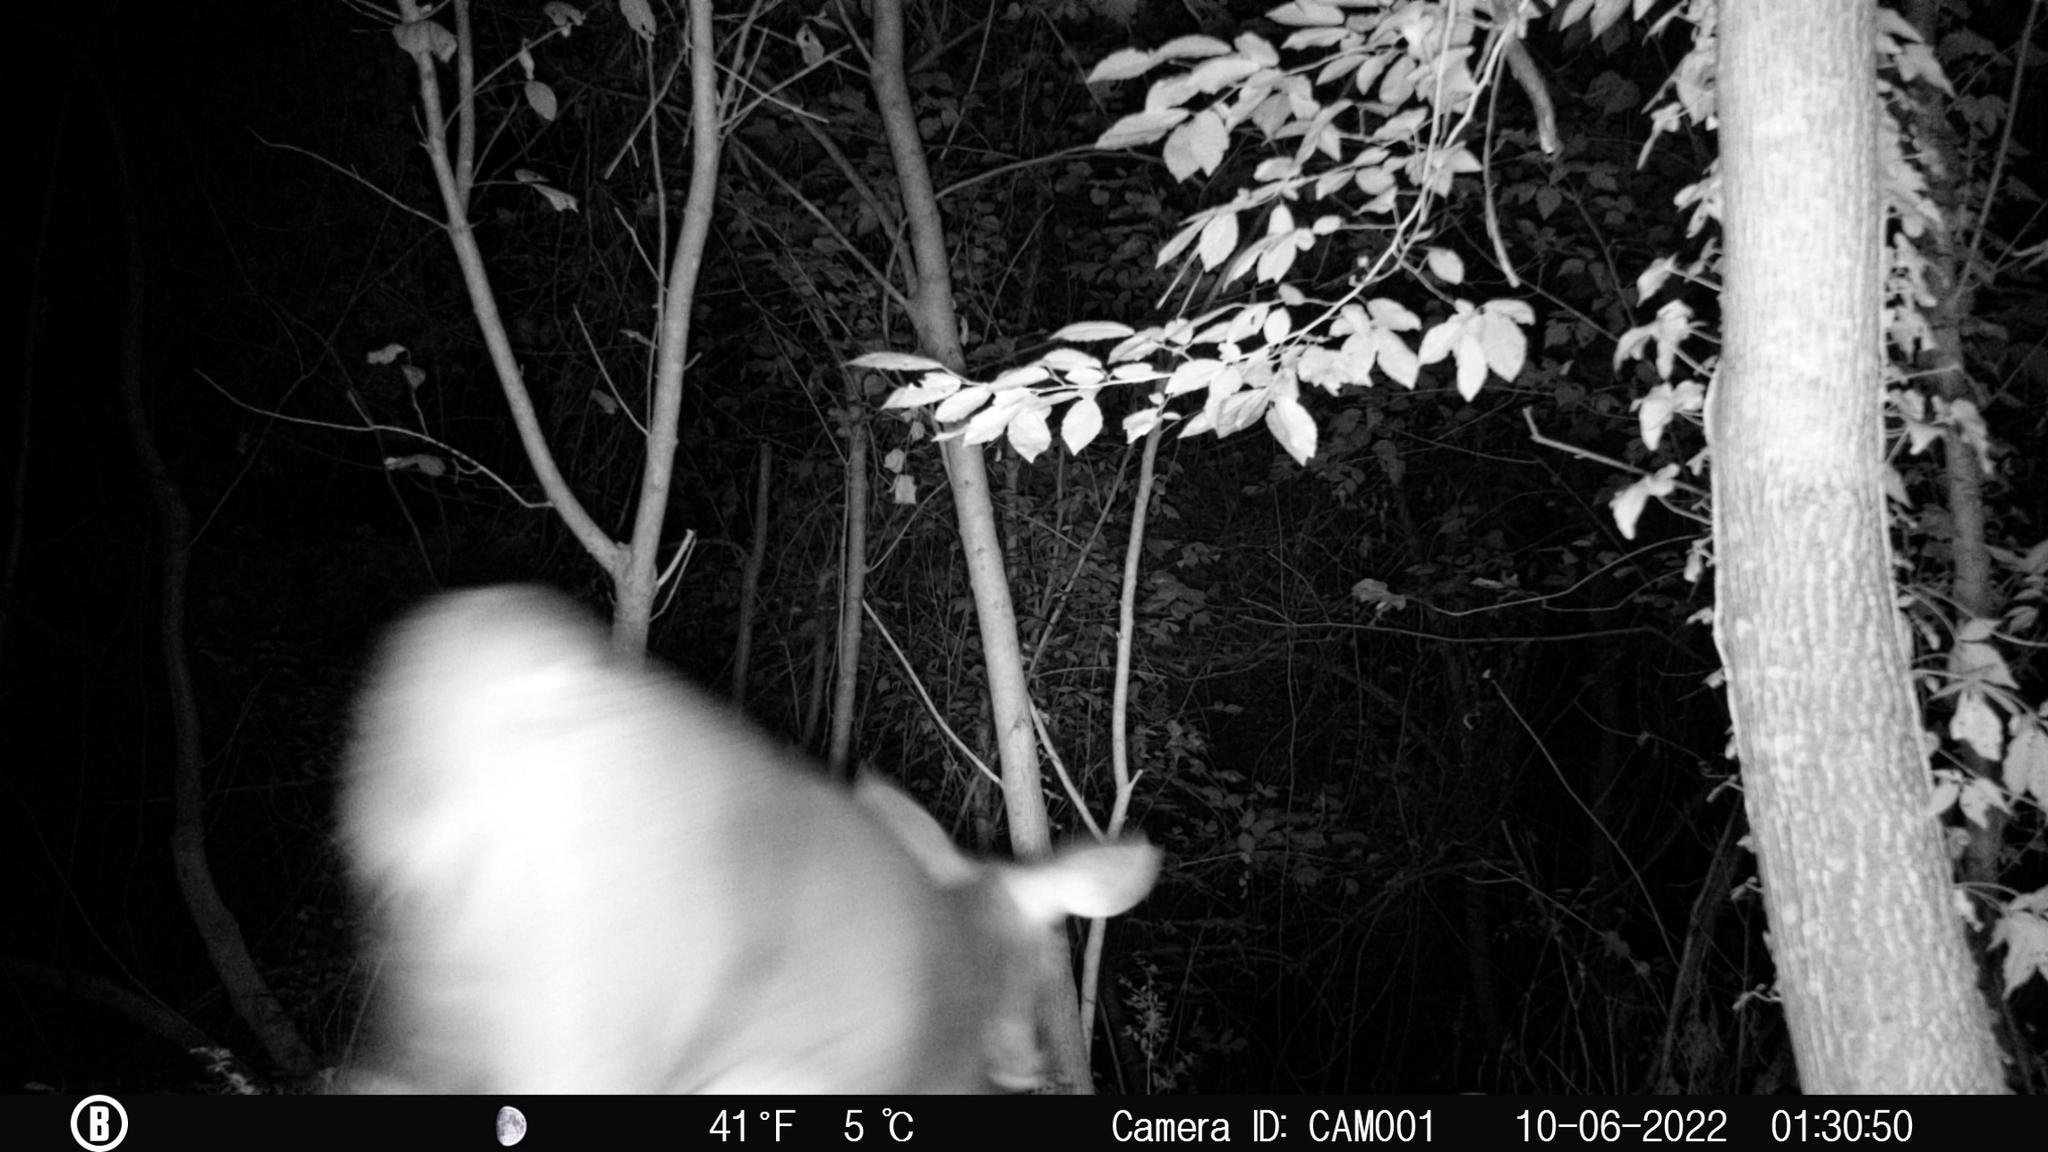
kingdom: Animalia
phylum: Chordata
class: Mammalia
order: Artiodactyla
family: Cervidae
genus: Odocoileus
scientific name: Odocoileus virginianus
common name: White-tailed deer
